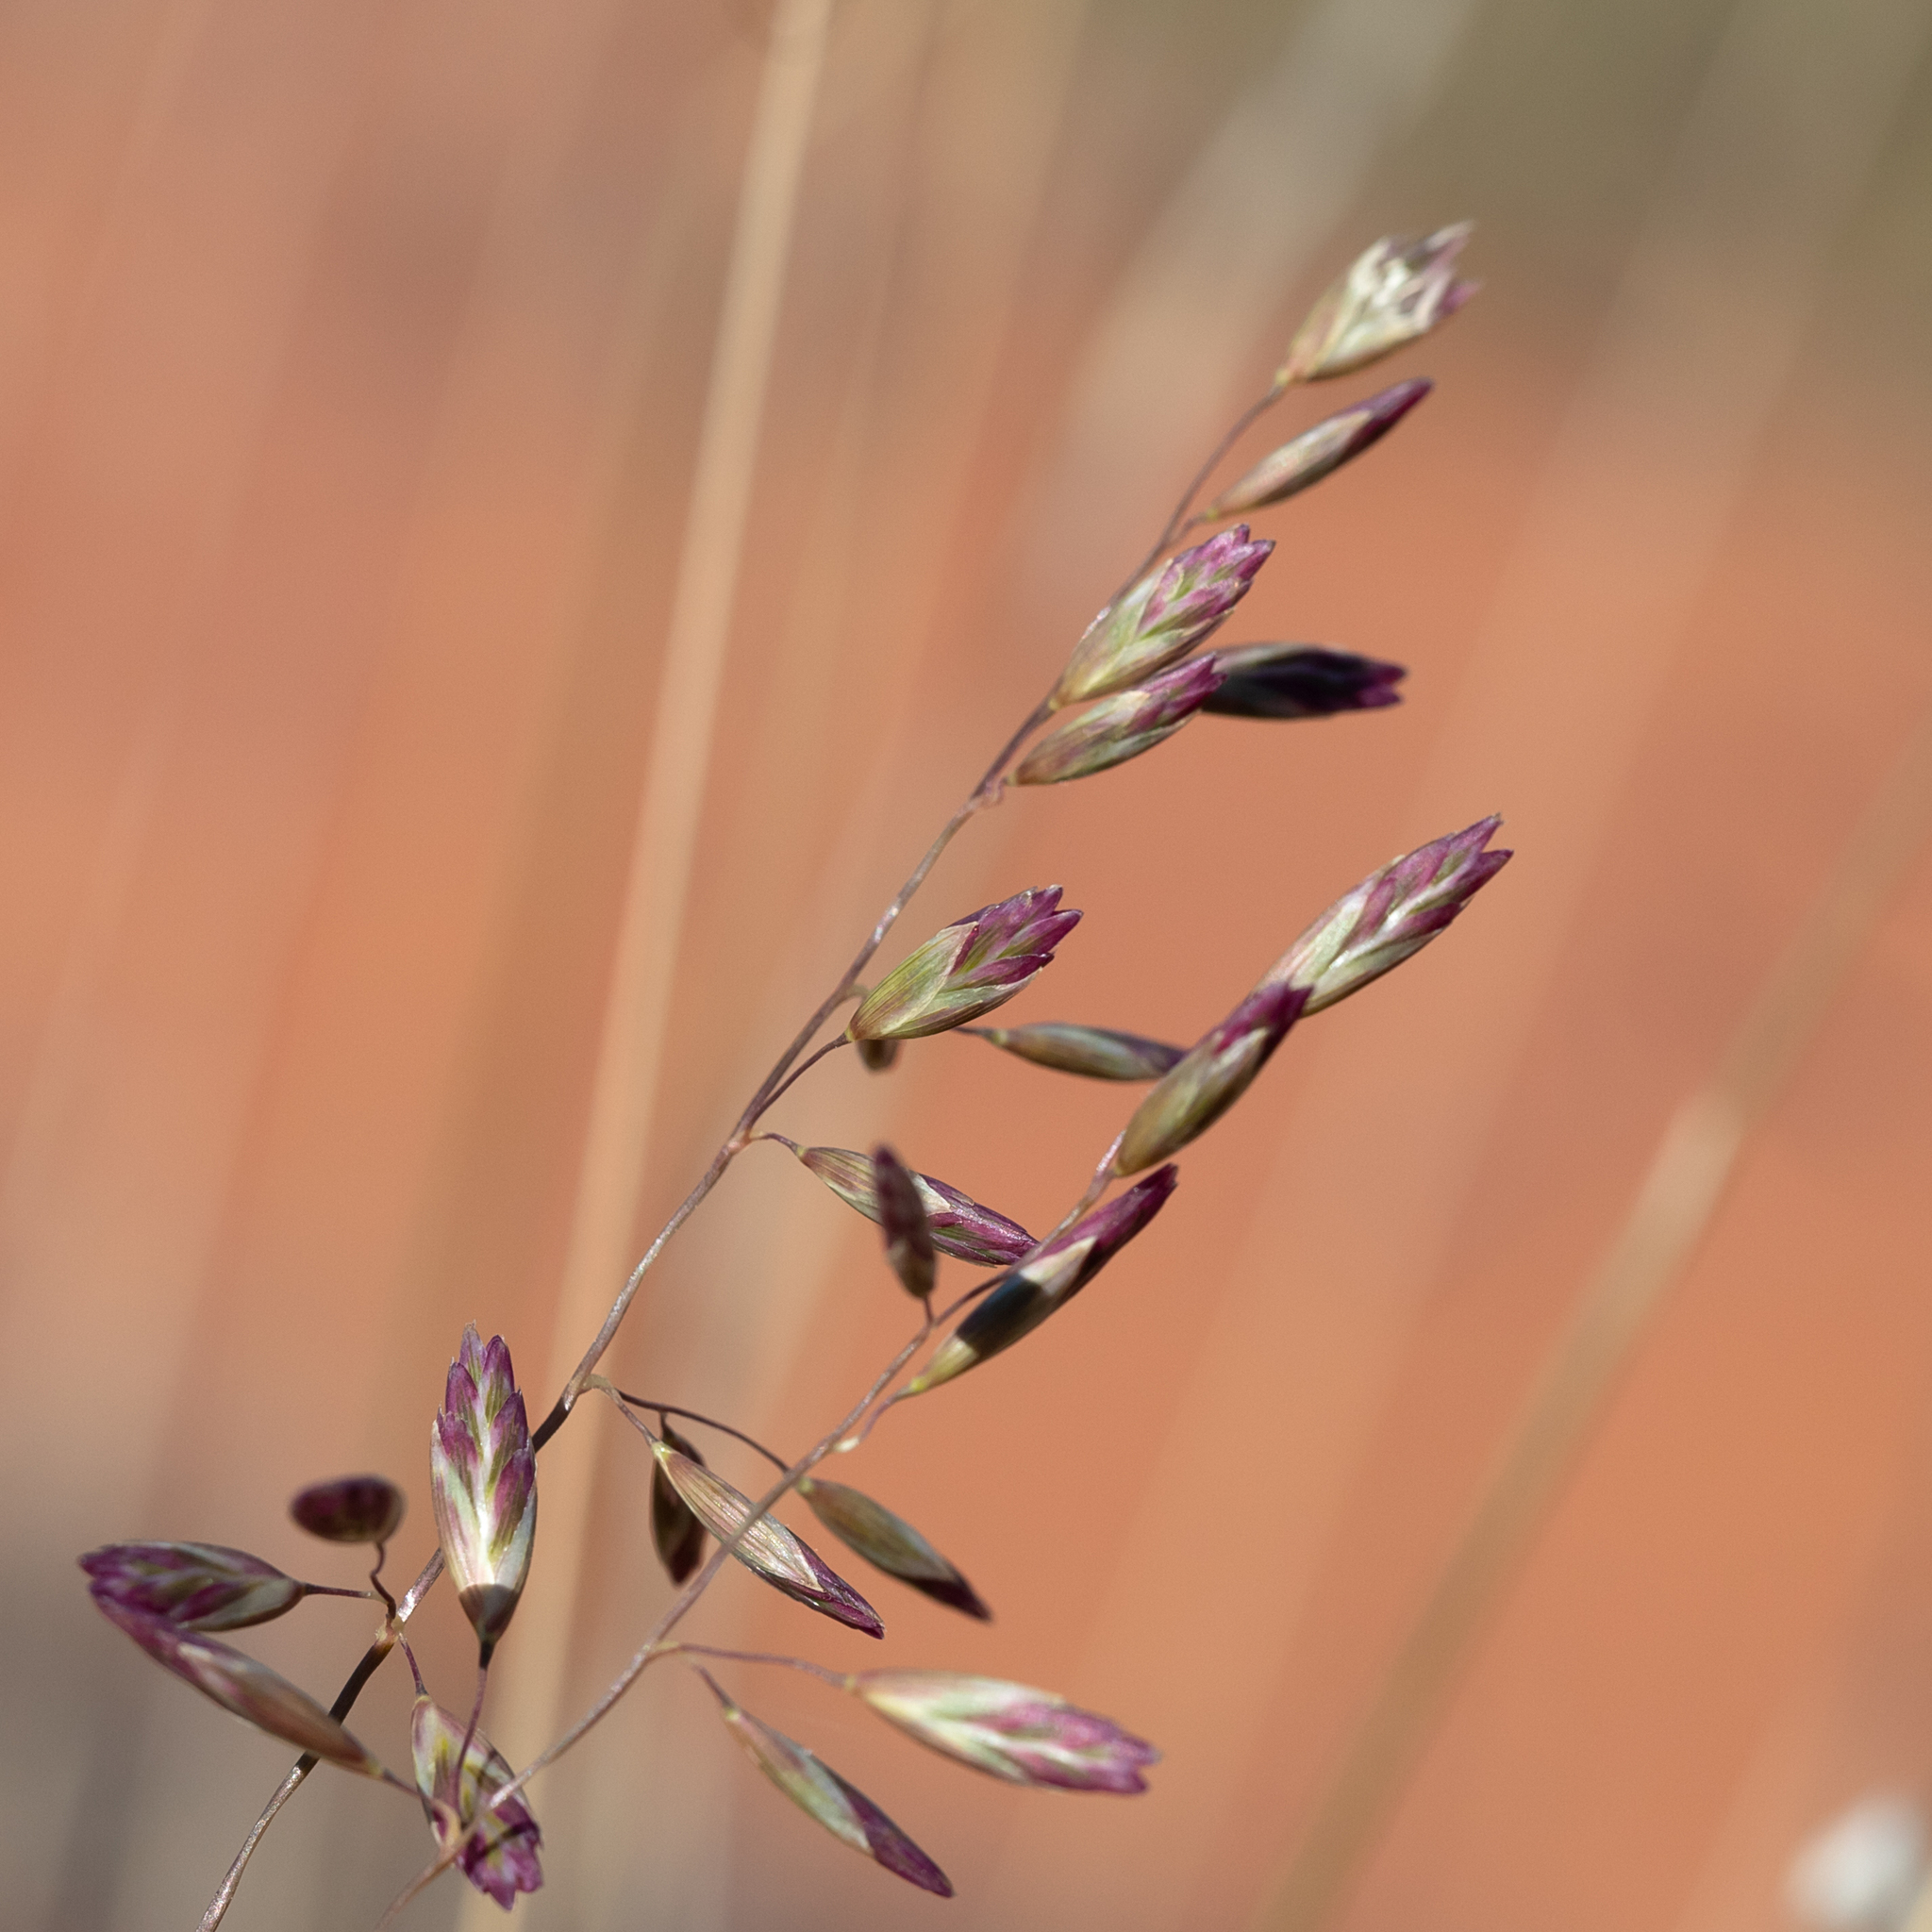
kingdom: Plantae
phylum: Tracheophyta
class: Liliopsida
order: Poales
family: Poaceae
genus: Triodia
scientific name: Triodia basedowii
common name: Hard spinifex
